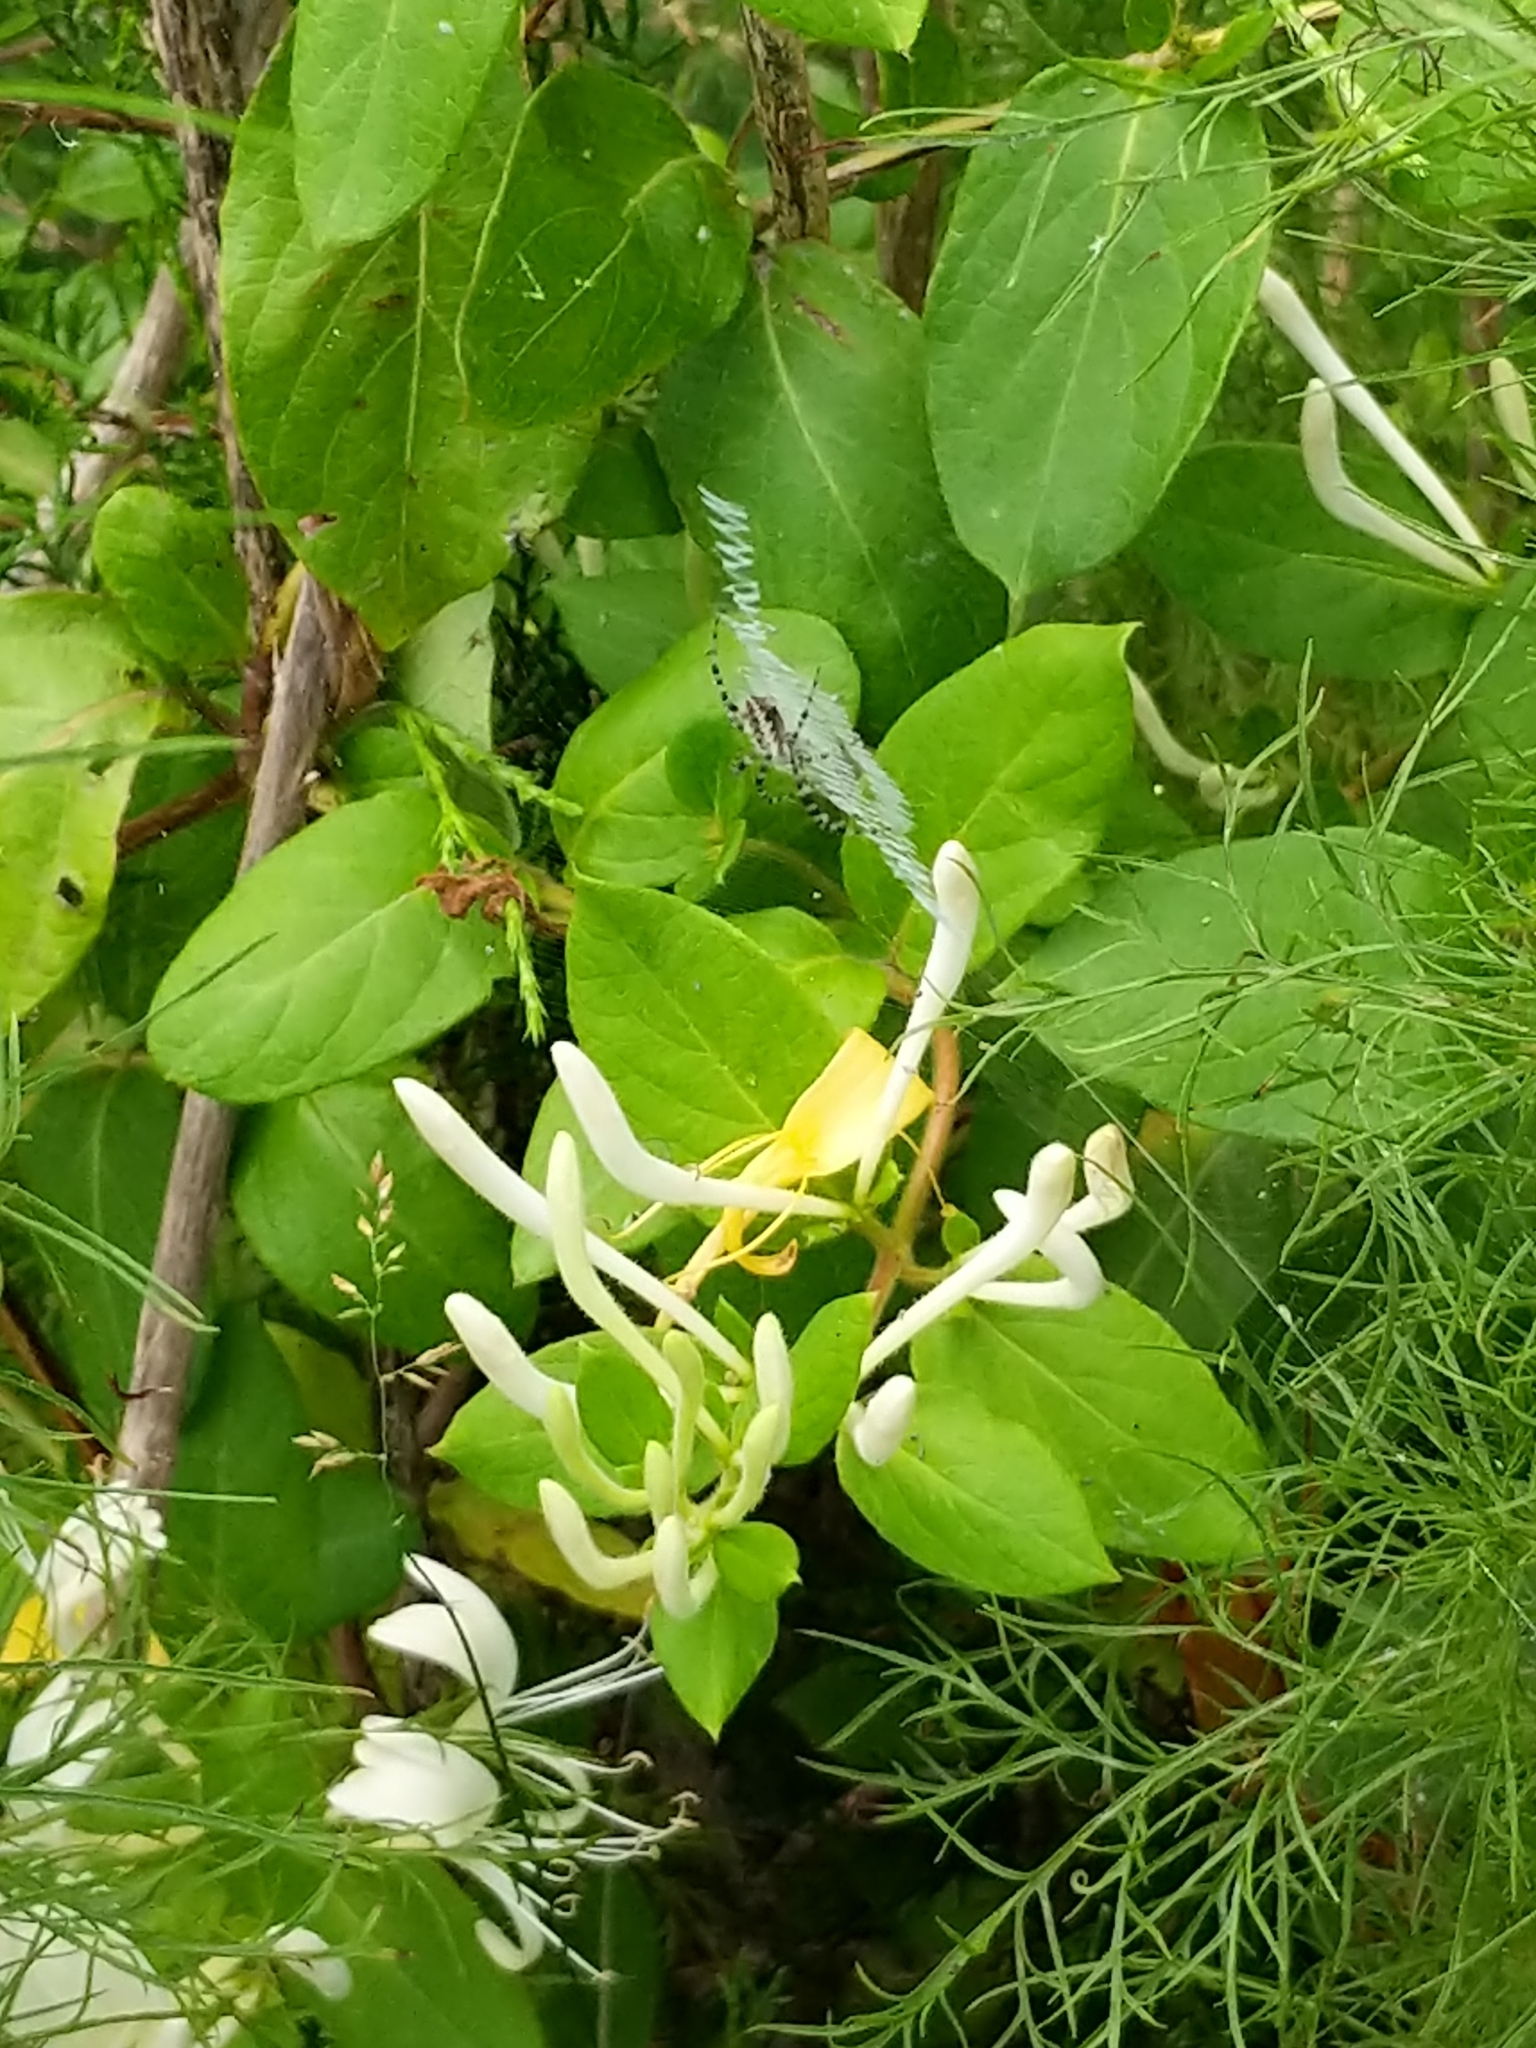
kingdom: Animalia
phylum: Arthropoda
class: Arachnida
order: Araneae
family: Araneidae
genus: Argiope
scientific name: Argiope aurantia
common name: Orb weavers
